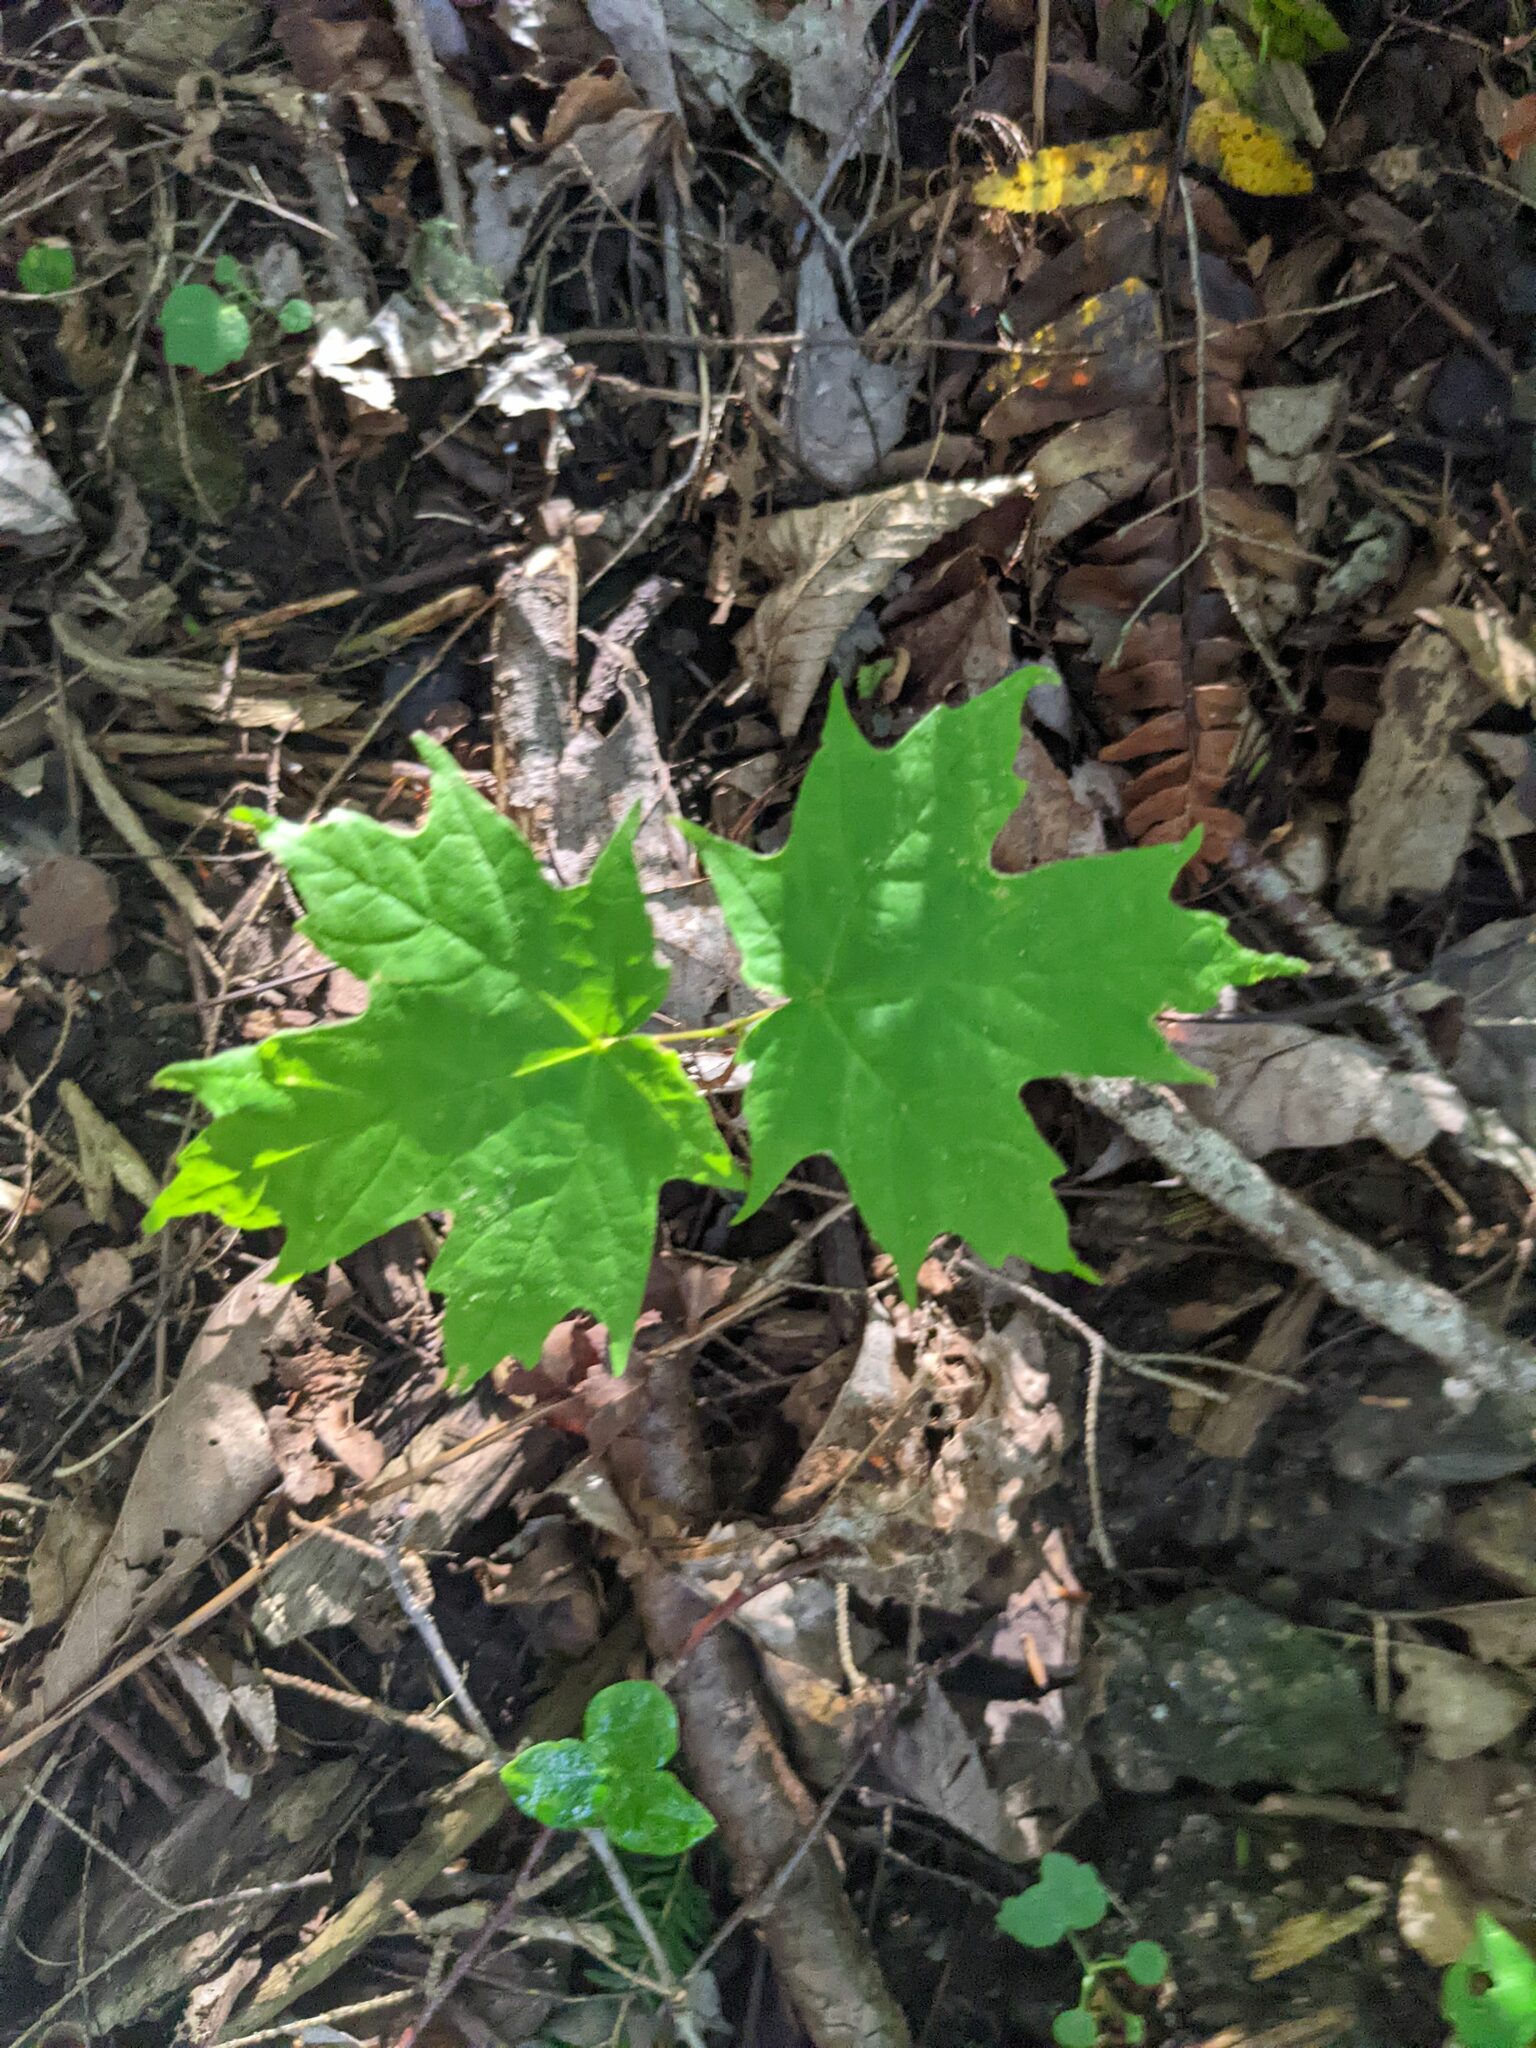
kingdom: Plantae
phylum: Tracheophyta
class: Magnoliopsida
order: Sapindales
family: Sapindaceae
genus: Acer
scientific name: Acer saccharum
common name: Sugar maple
